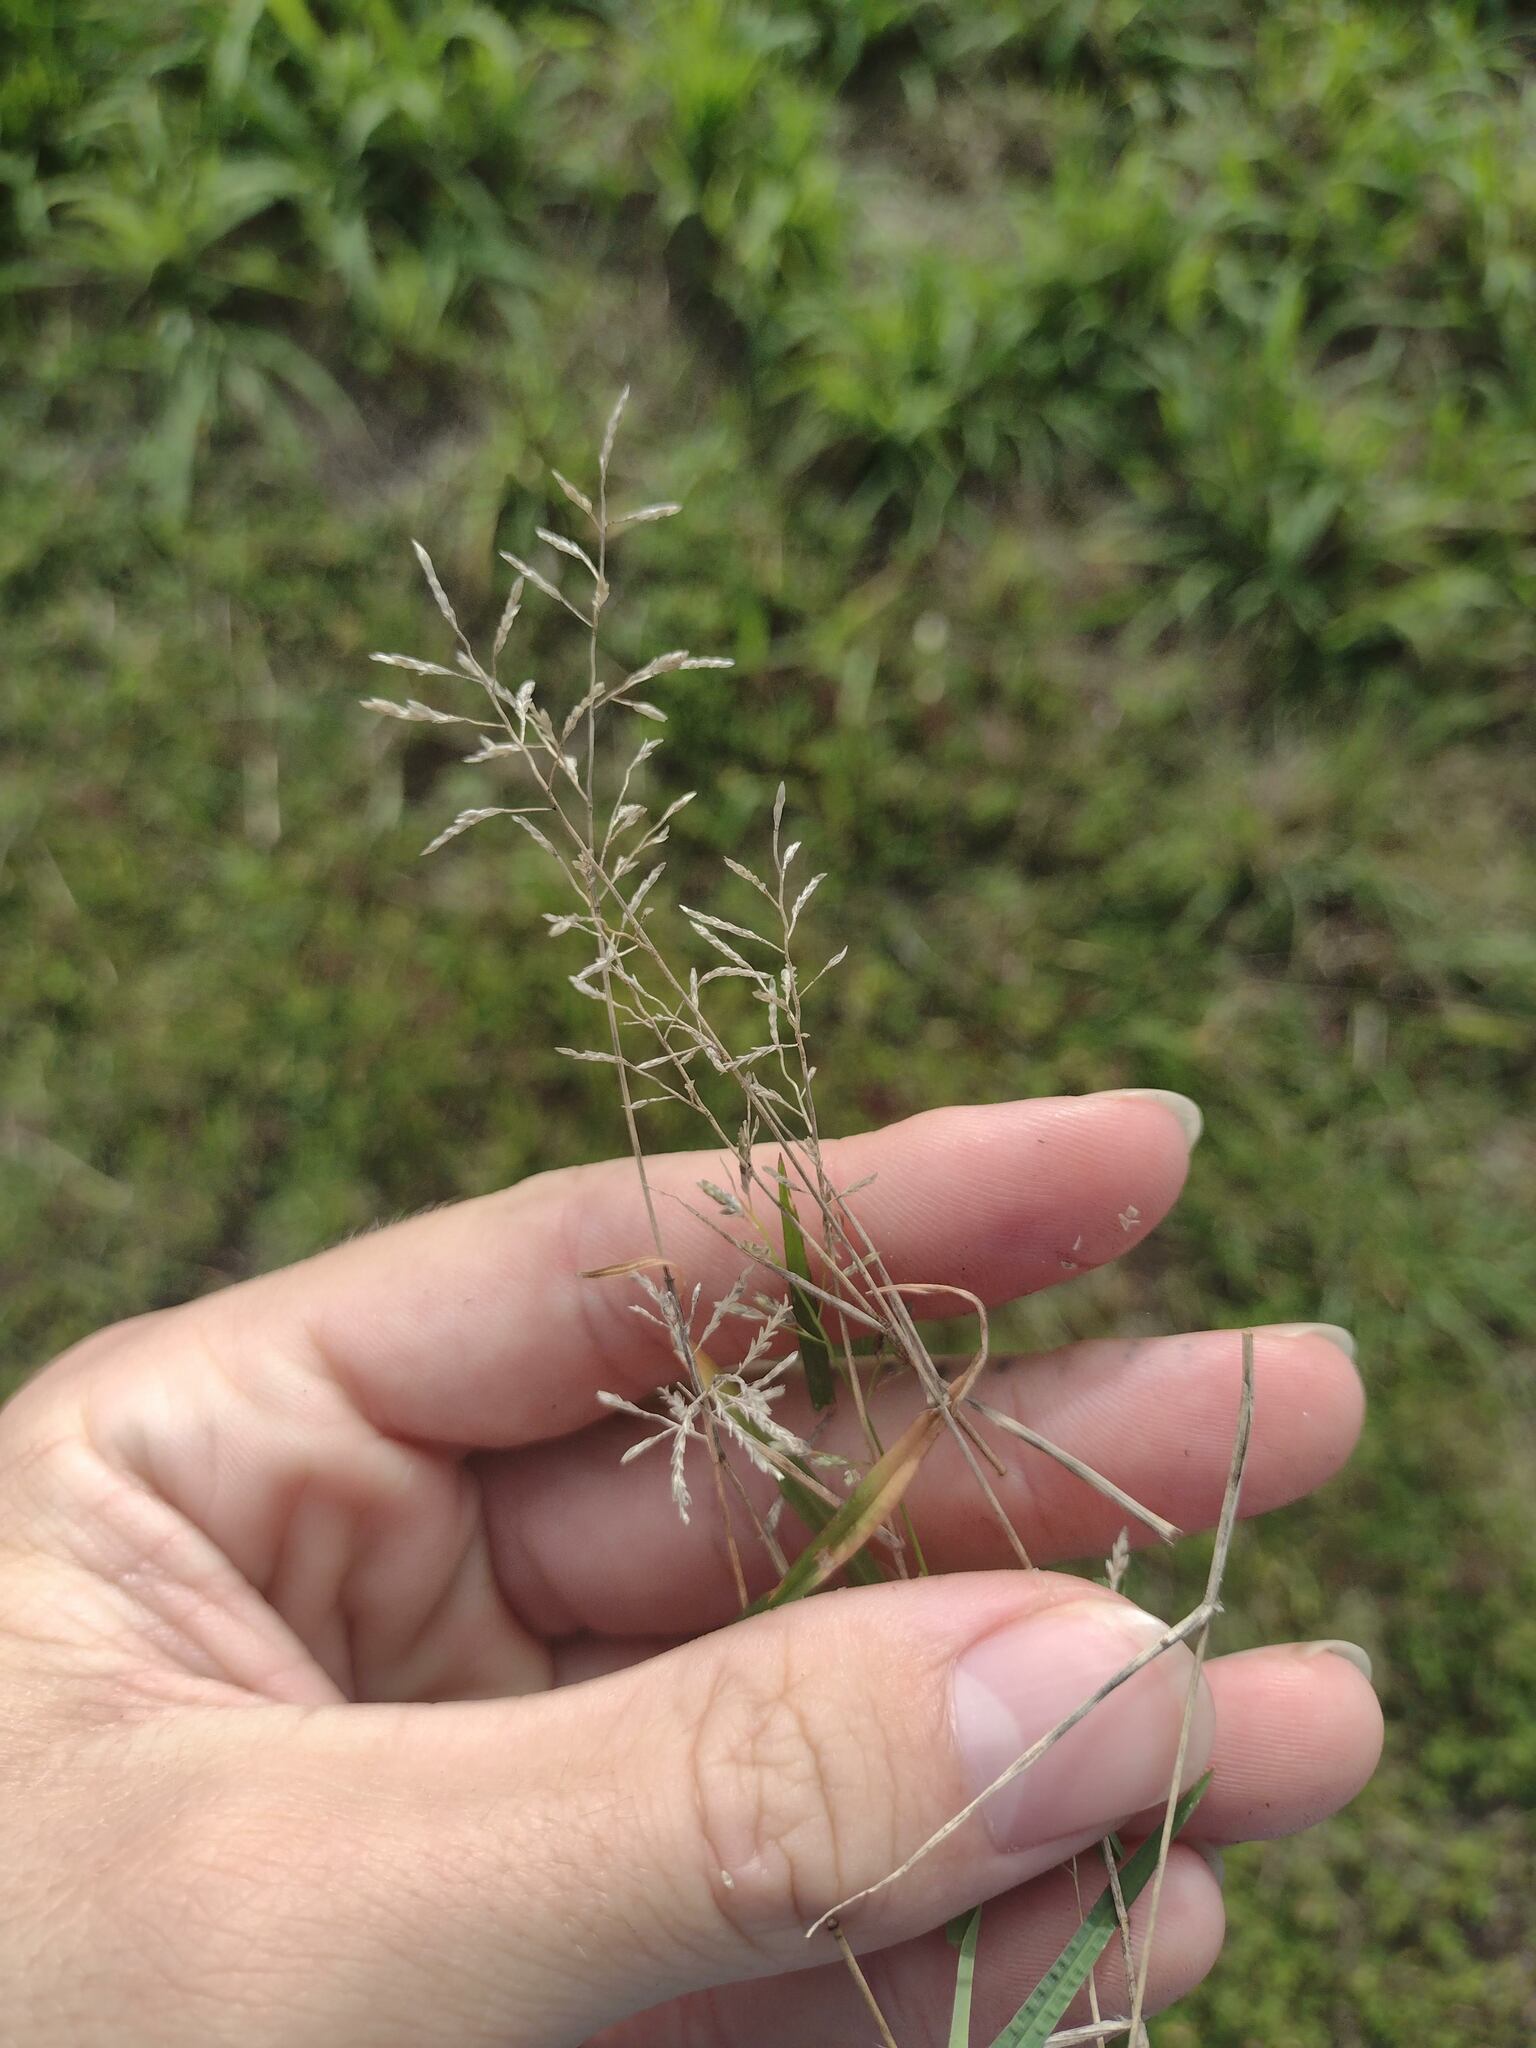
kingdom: Plantae
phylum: Tracheophyta
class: Liliopsida
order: Poales
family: Poaceae
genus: Eragrostis
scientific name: Eragrostis barrelieri
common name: Mediterranean lovegrass
